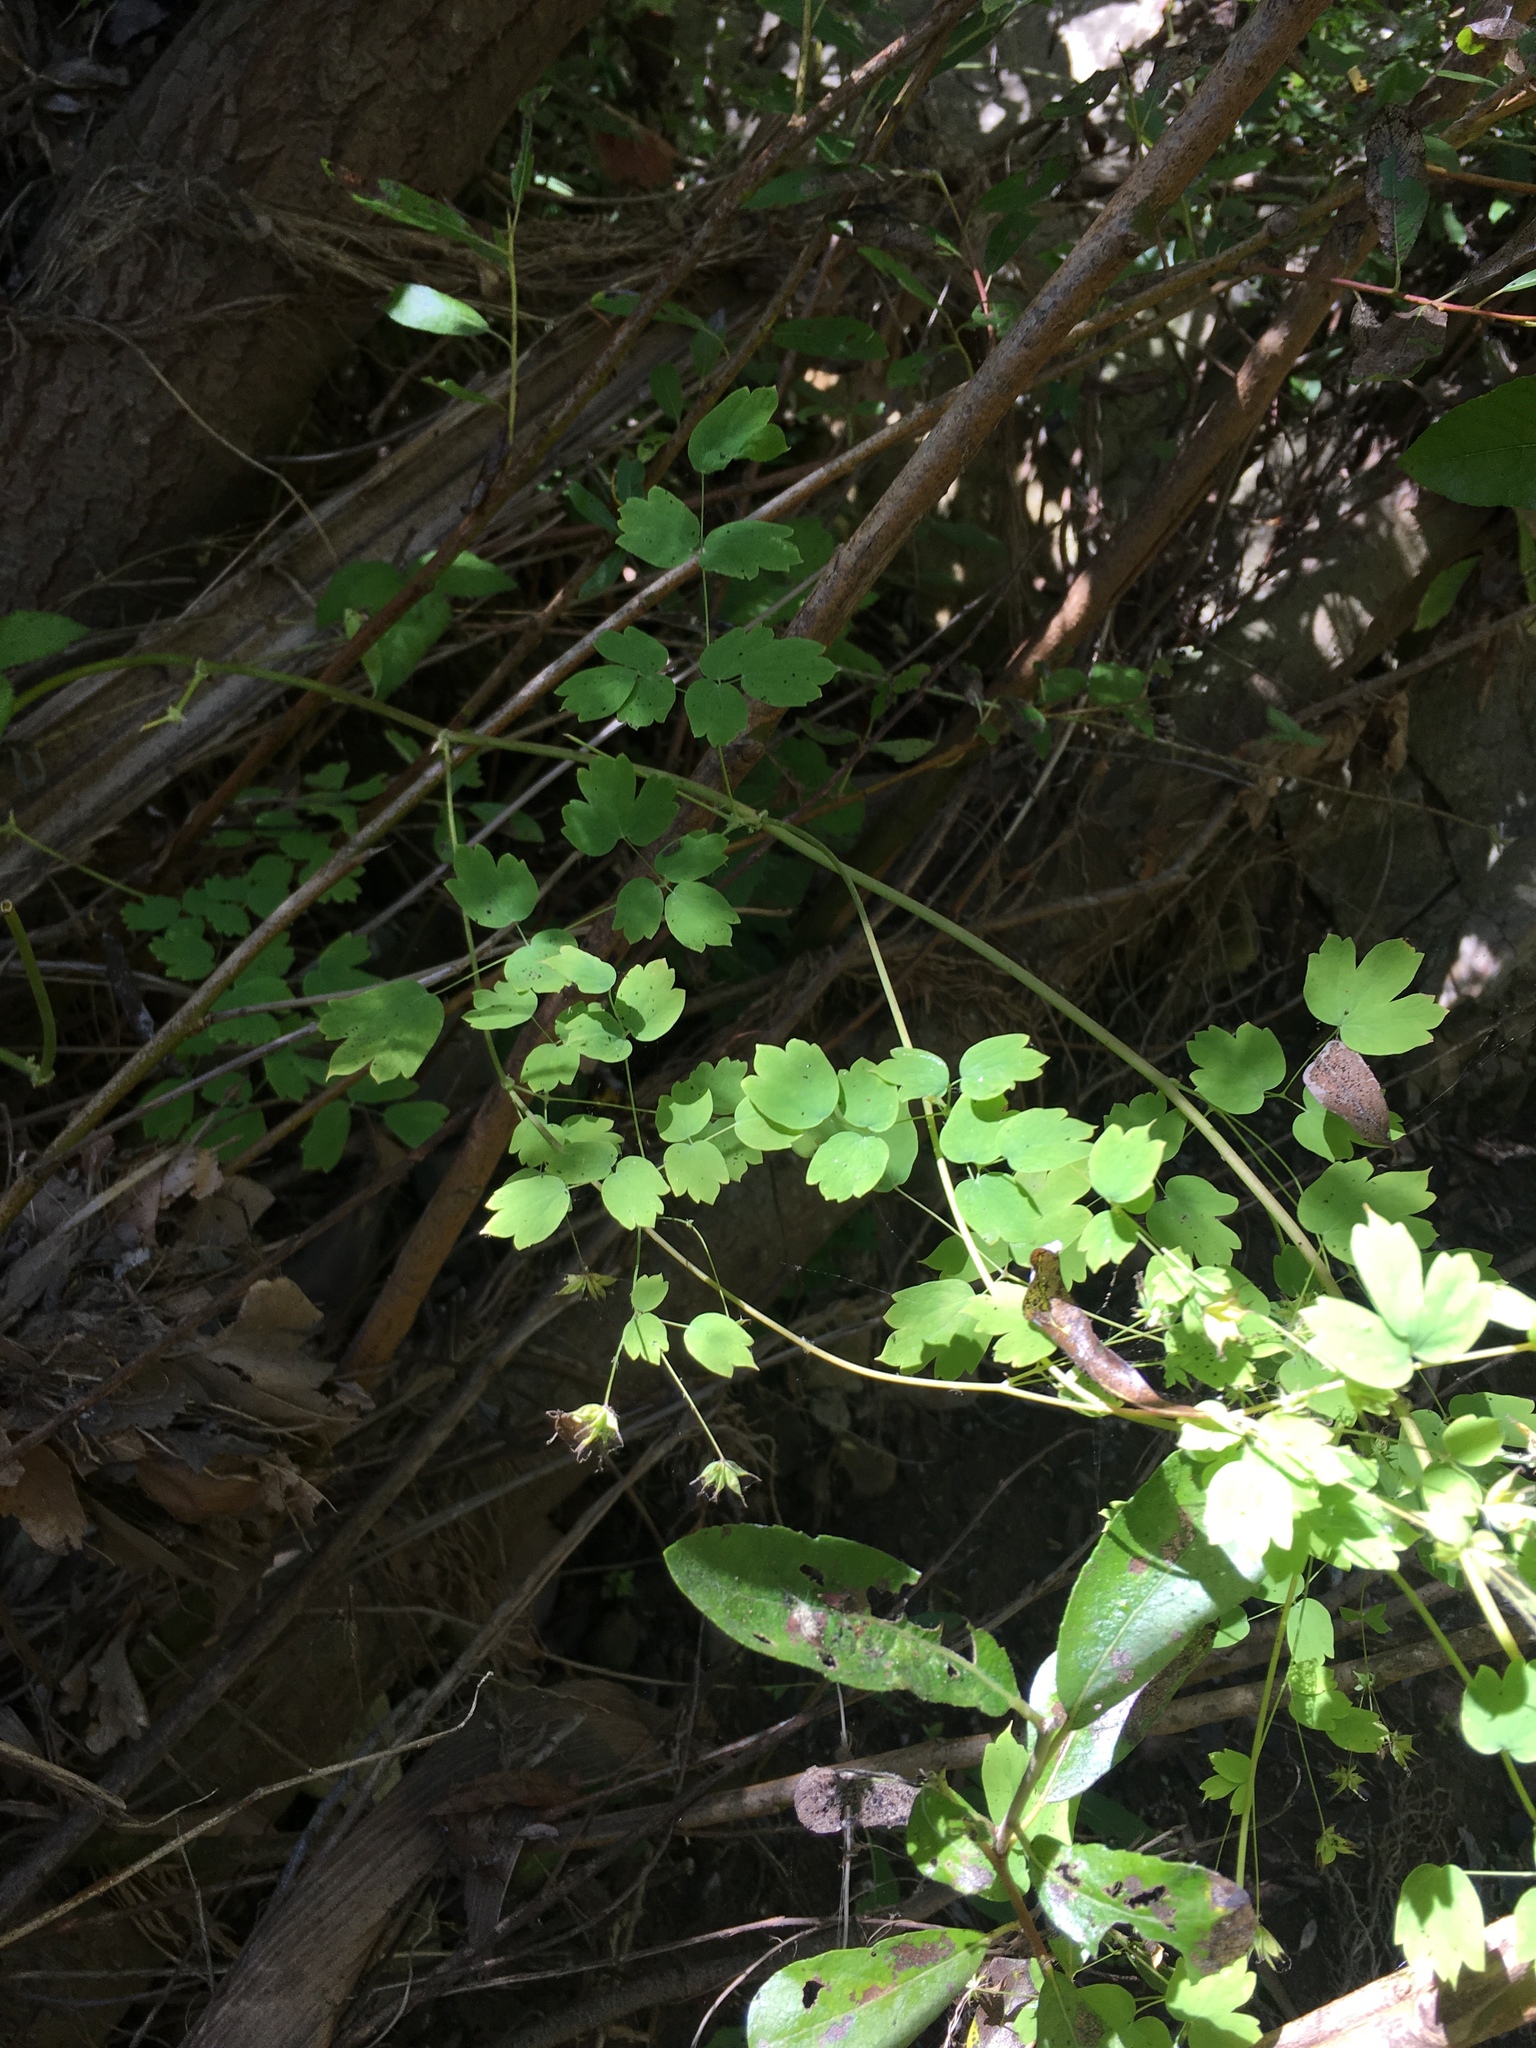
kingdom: Plantae
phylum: Tracheophyta
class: Magnoliopsida
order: Ranunculales
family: Ranunculaceae
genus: Thalictrum
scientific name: Thalictrum fendleri
